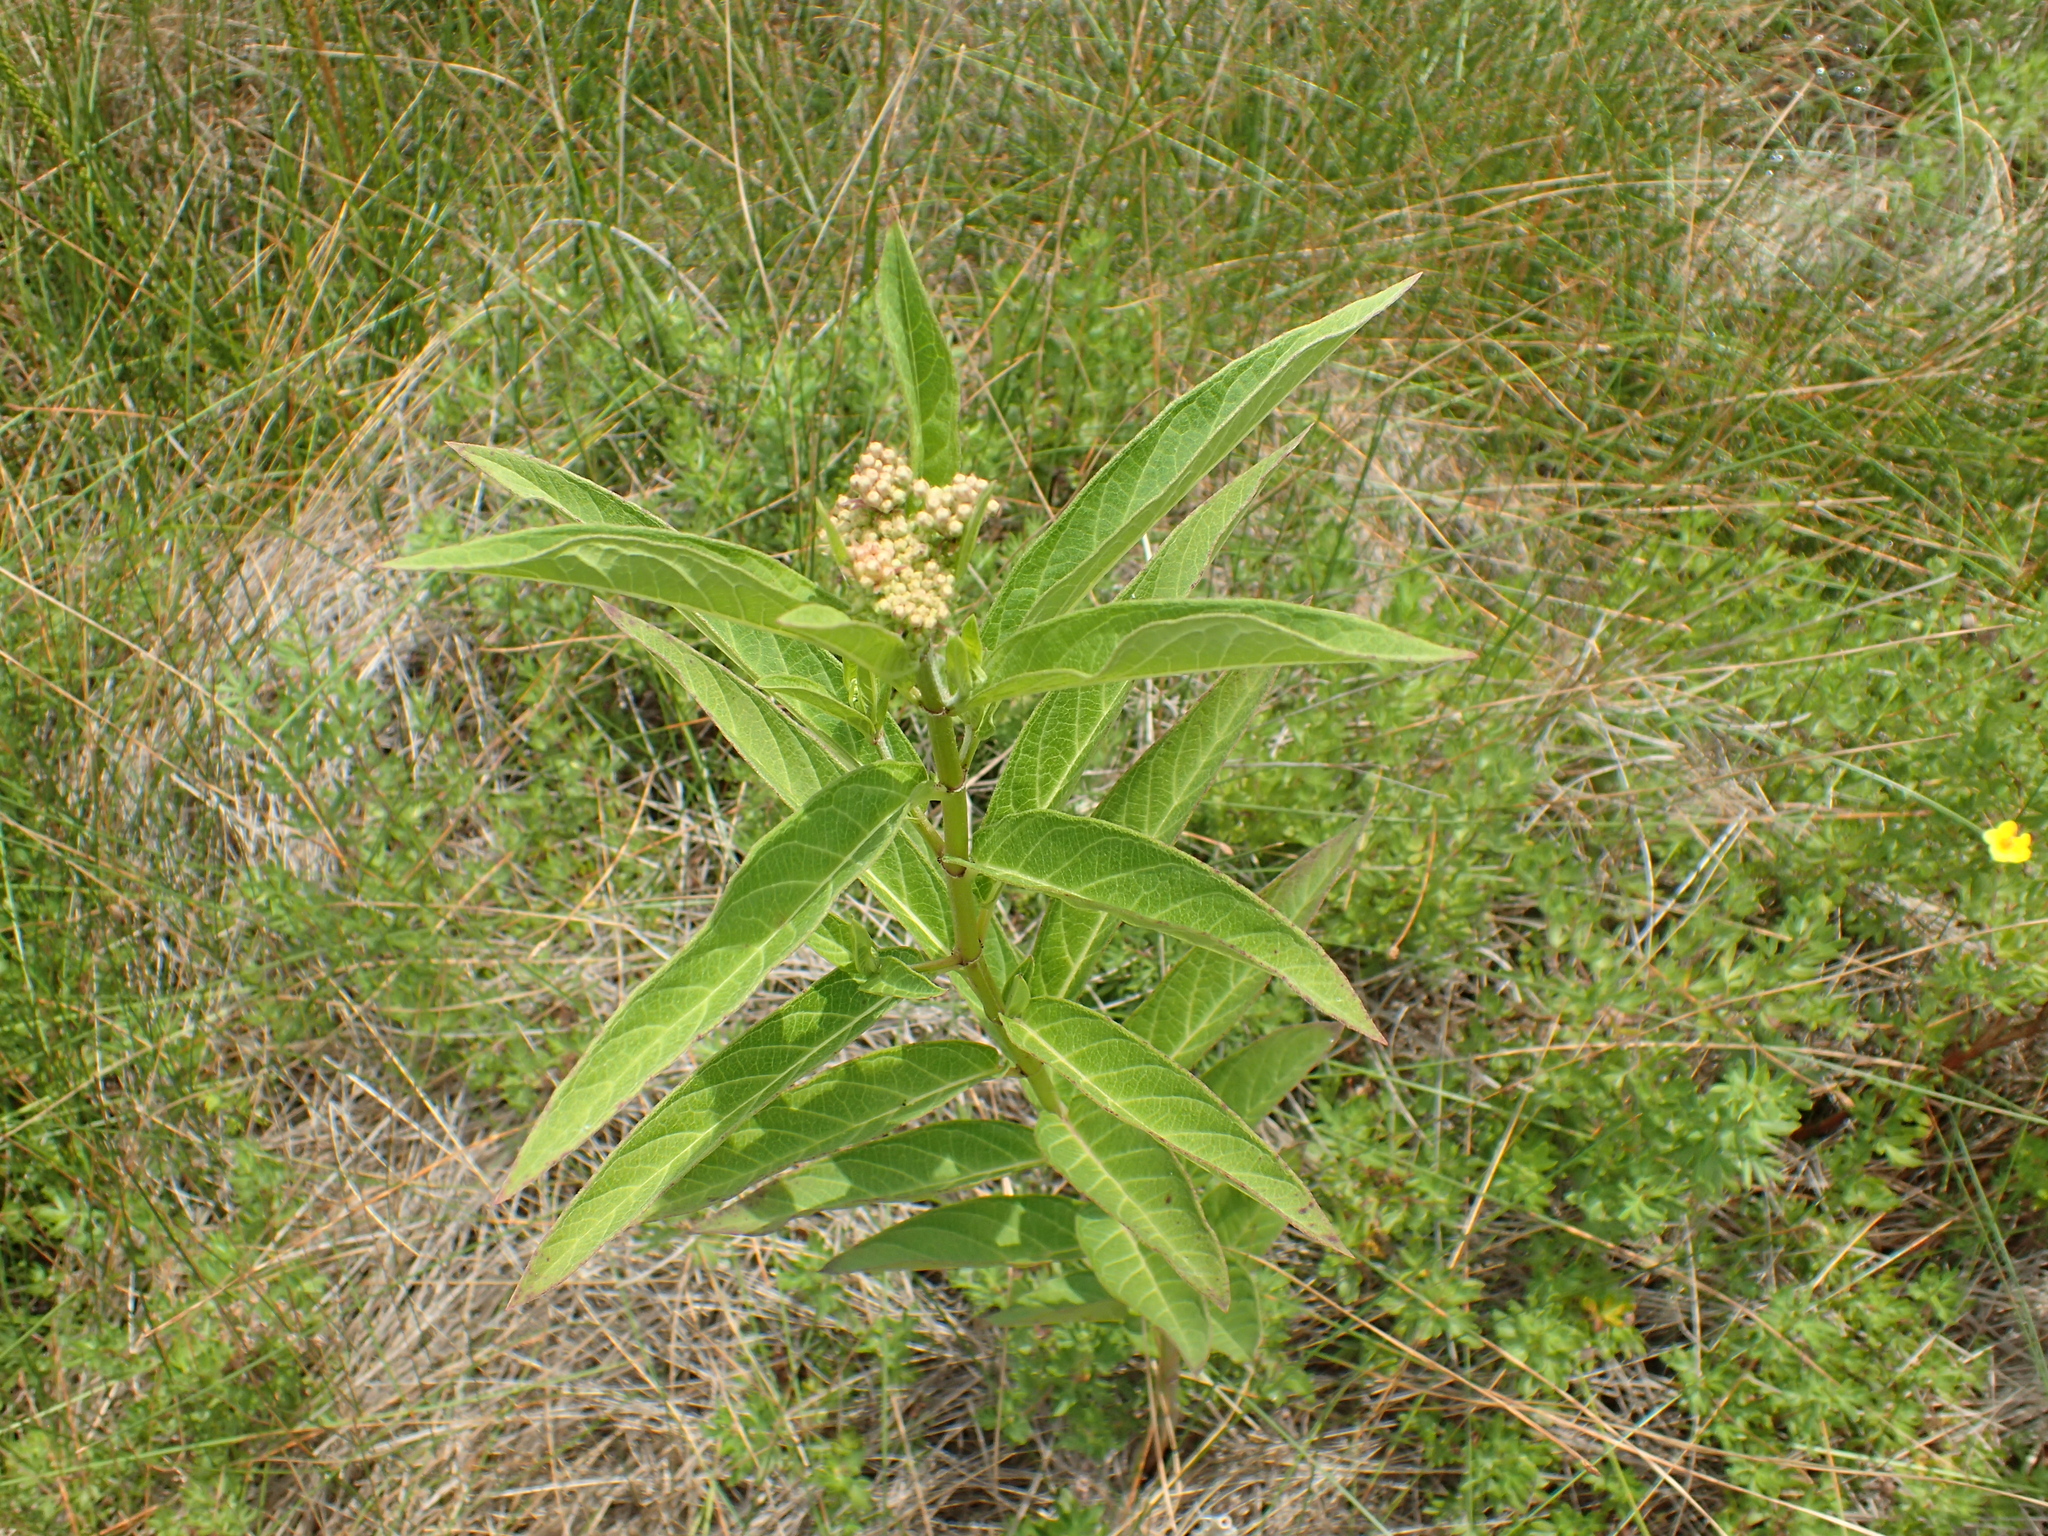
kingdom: Plantae
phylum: Tracheophyta
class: Magnoliopsida
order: Gentianales
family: Apocynaceae
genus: Asclepias
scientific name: Asclepias incarnata
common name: Swamp milkweed
